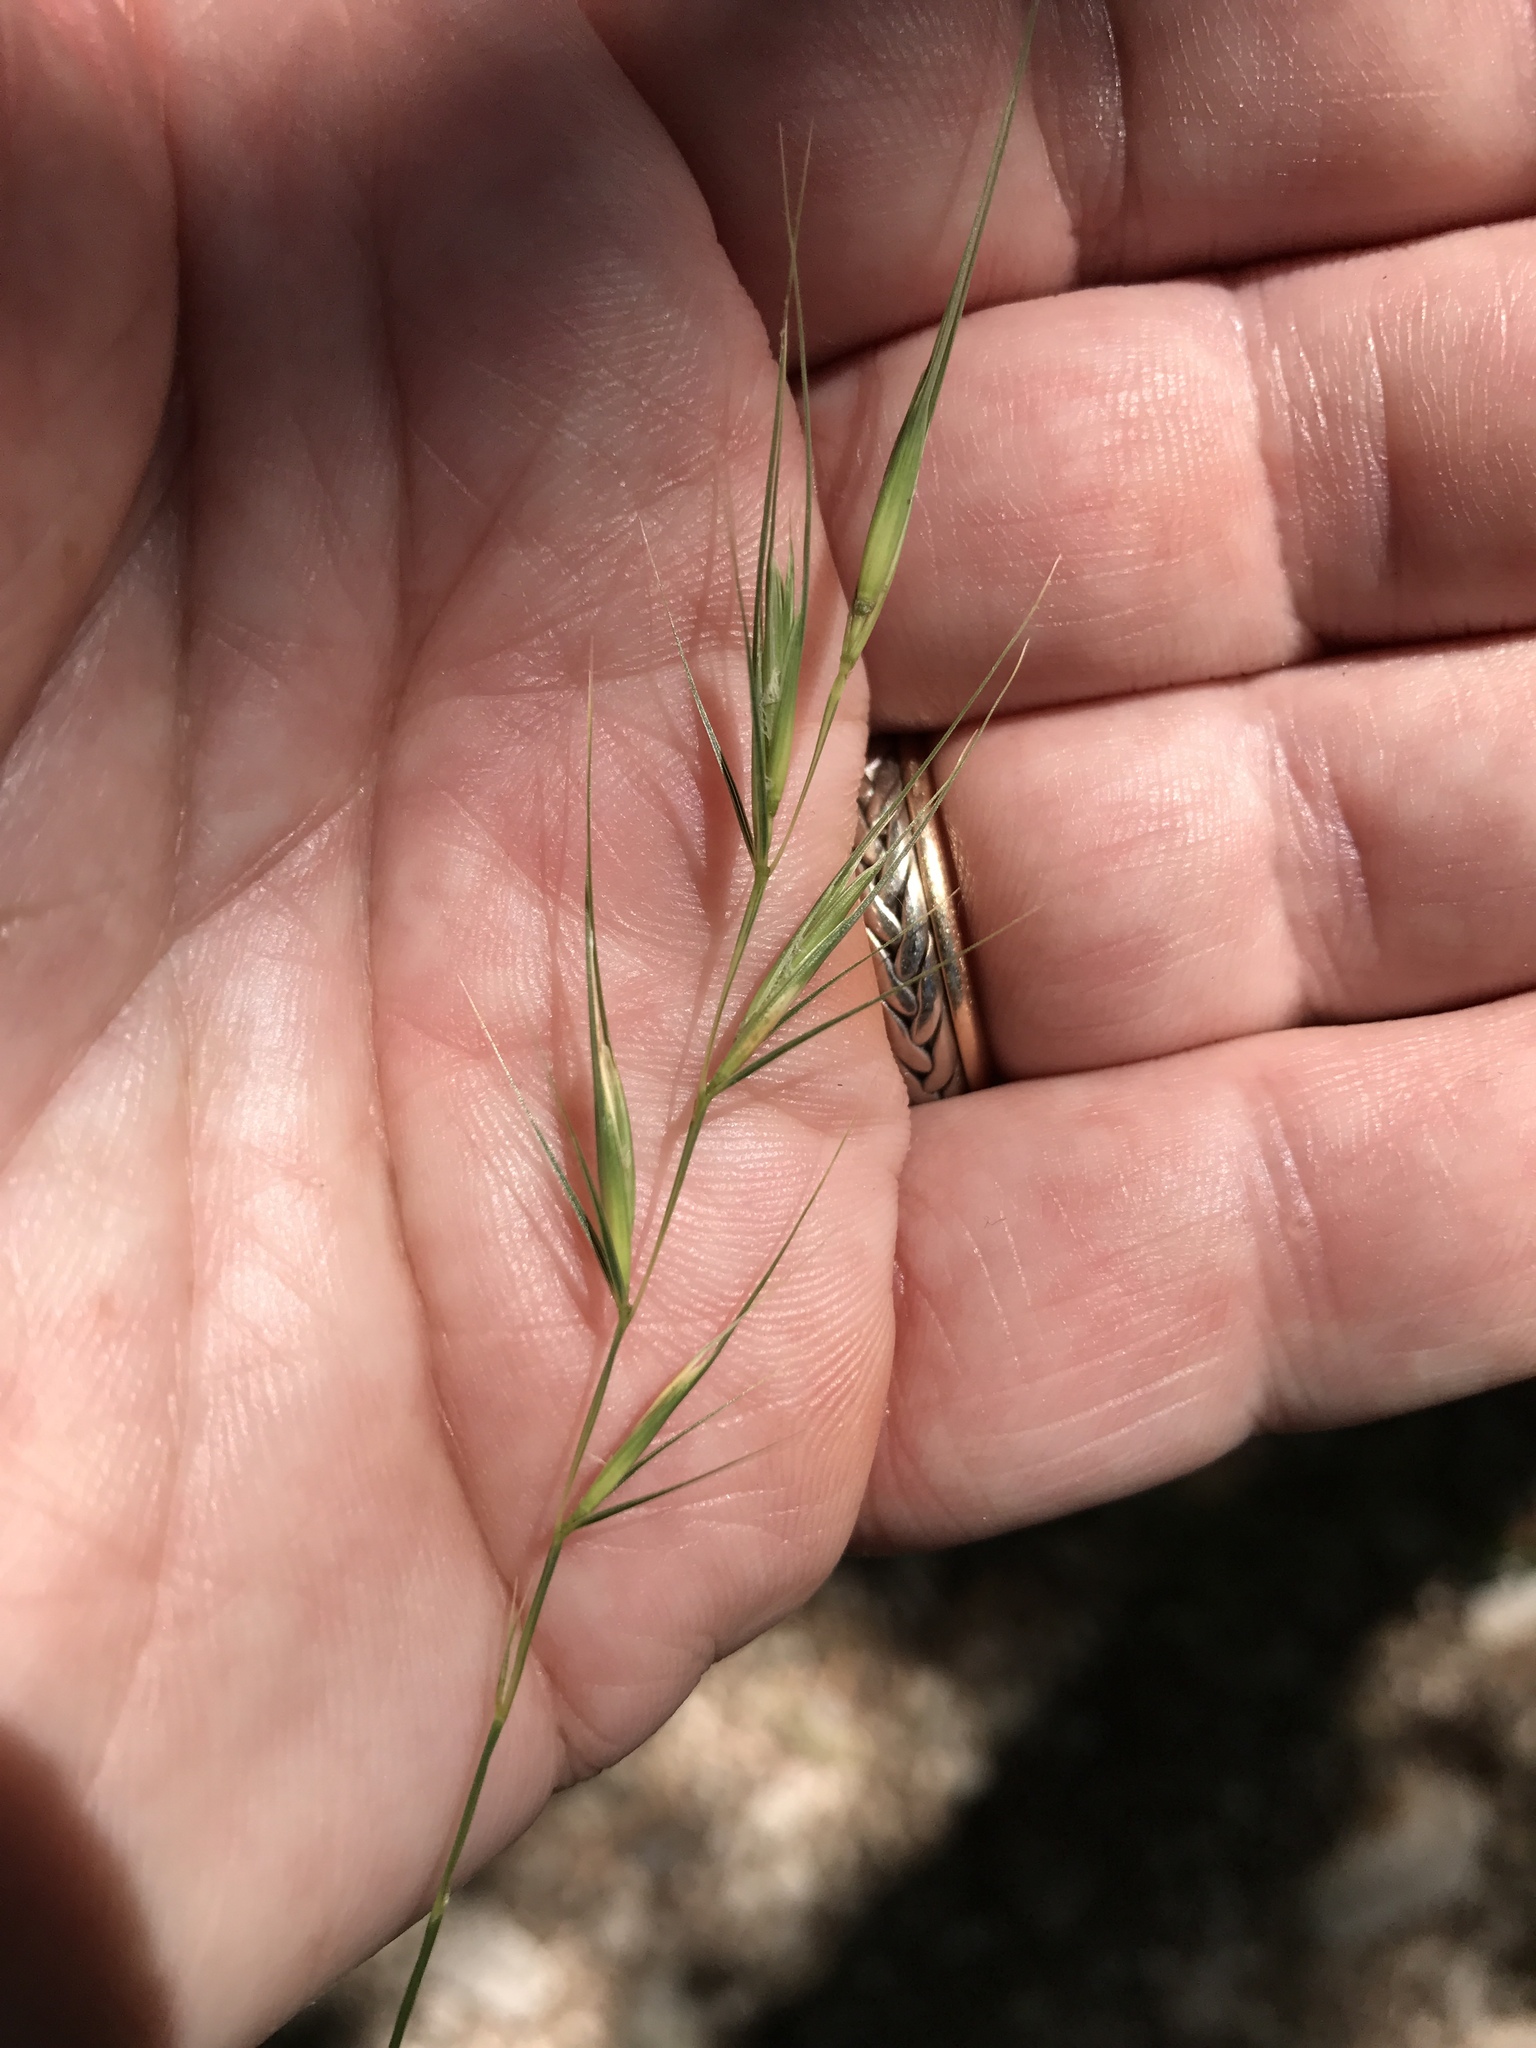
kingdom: Plantae
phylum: Tracheophyta
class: Liliopsida
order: Poales
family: Poaceae
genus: Elymus
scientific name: Elymus texensis
